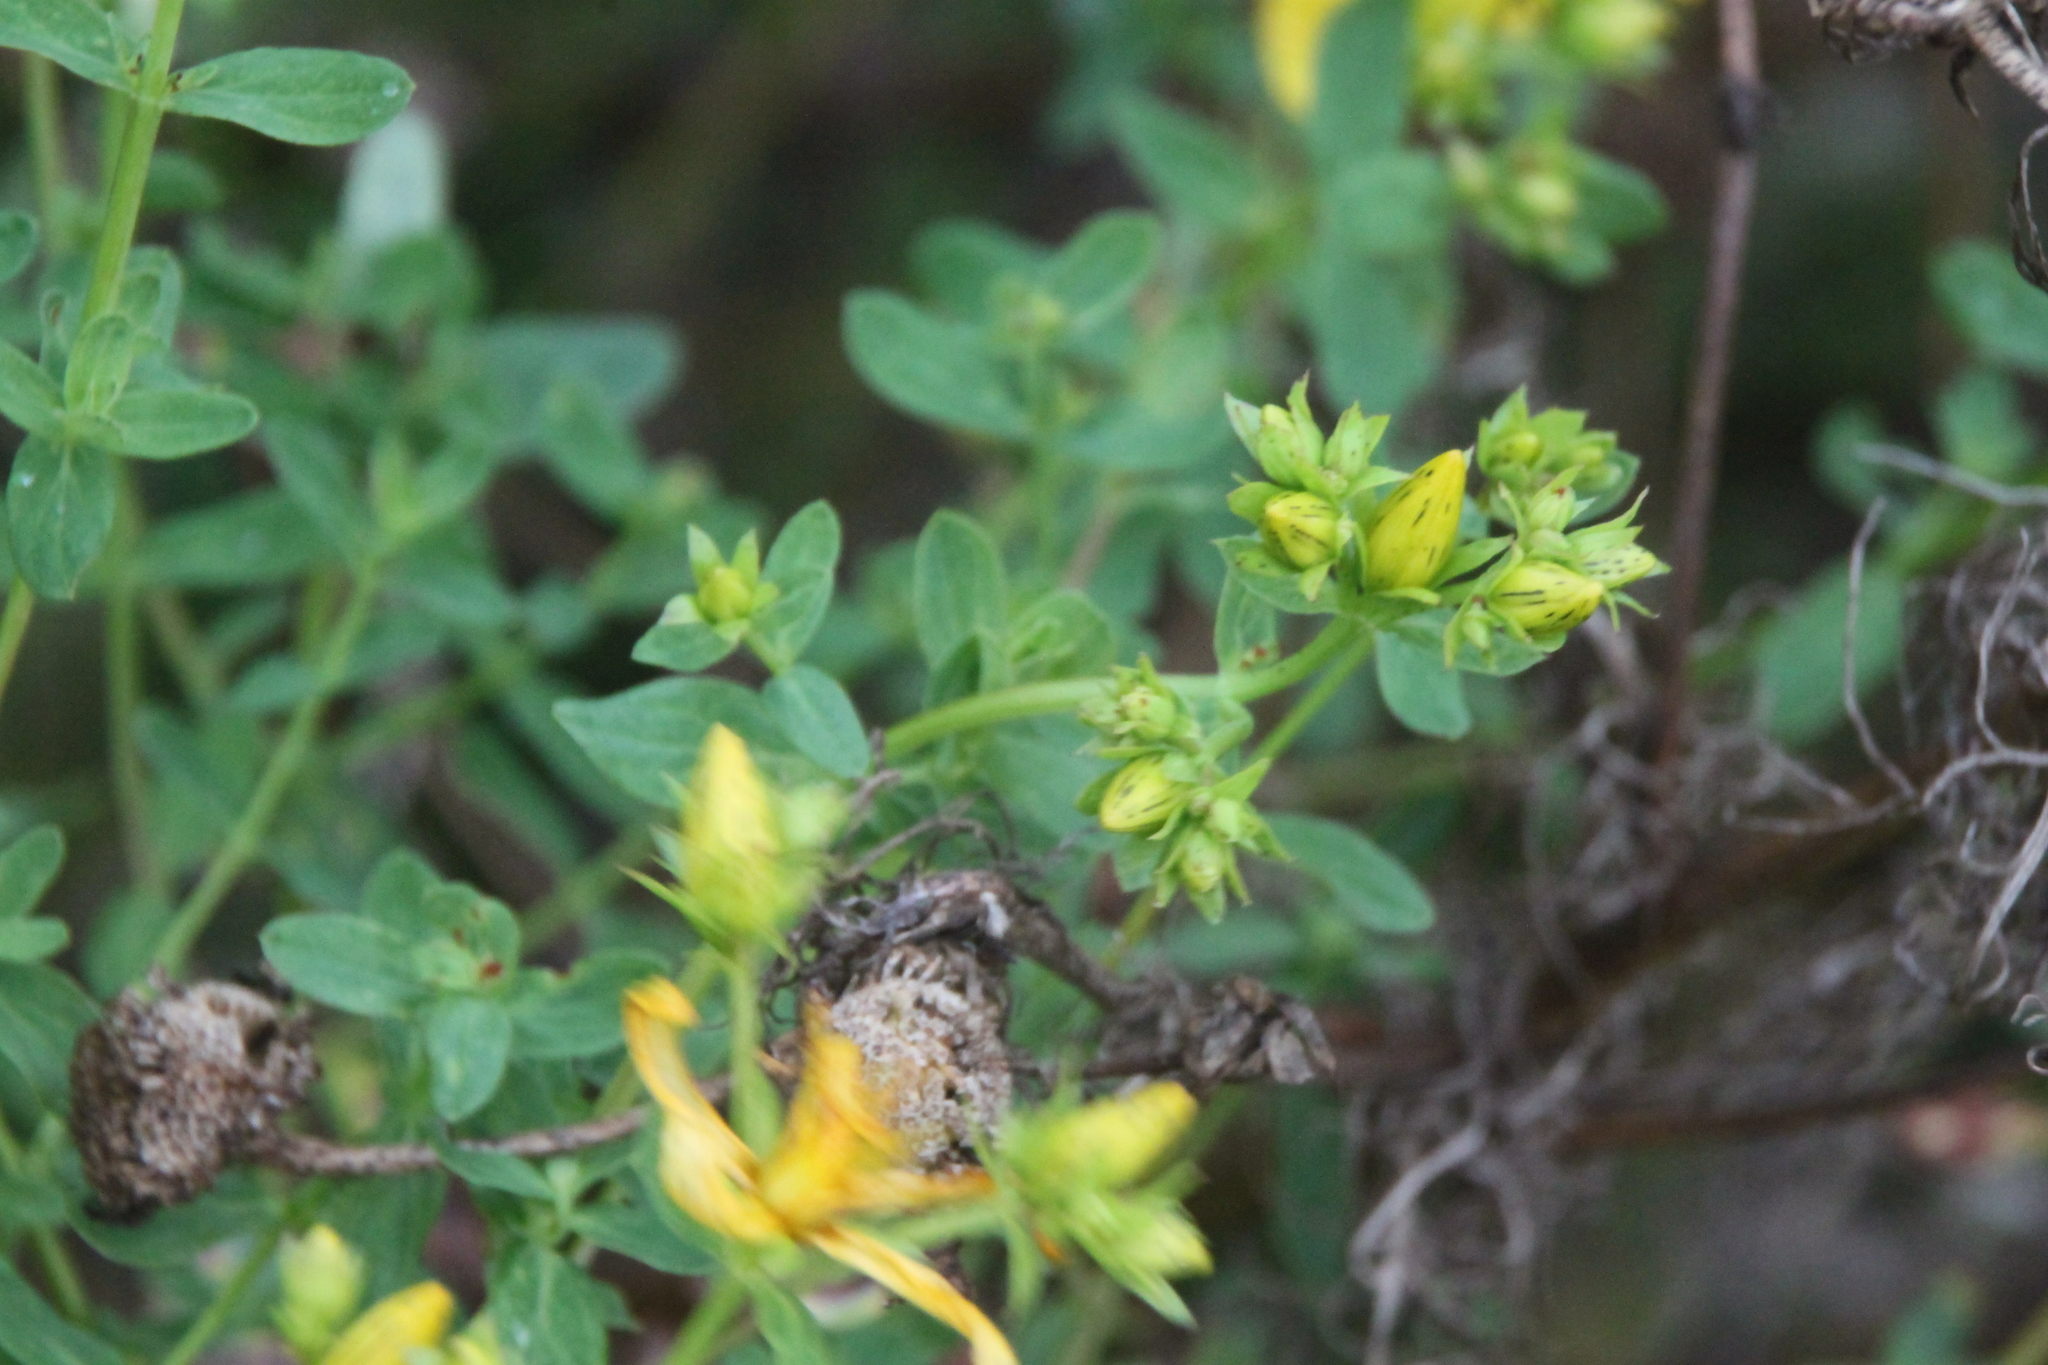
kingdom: Plantae
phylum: Tracheophyta
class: Magnoliopsida
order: Malpighiales
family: Hypericaceae
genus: Hypericum
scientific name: Hypericum perforatum
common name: Common st. johnswort
